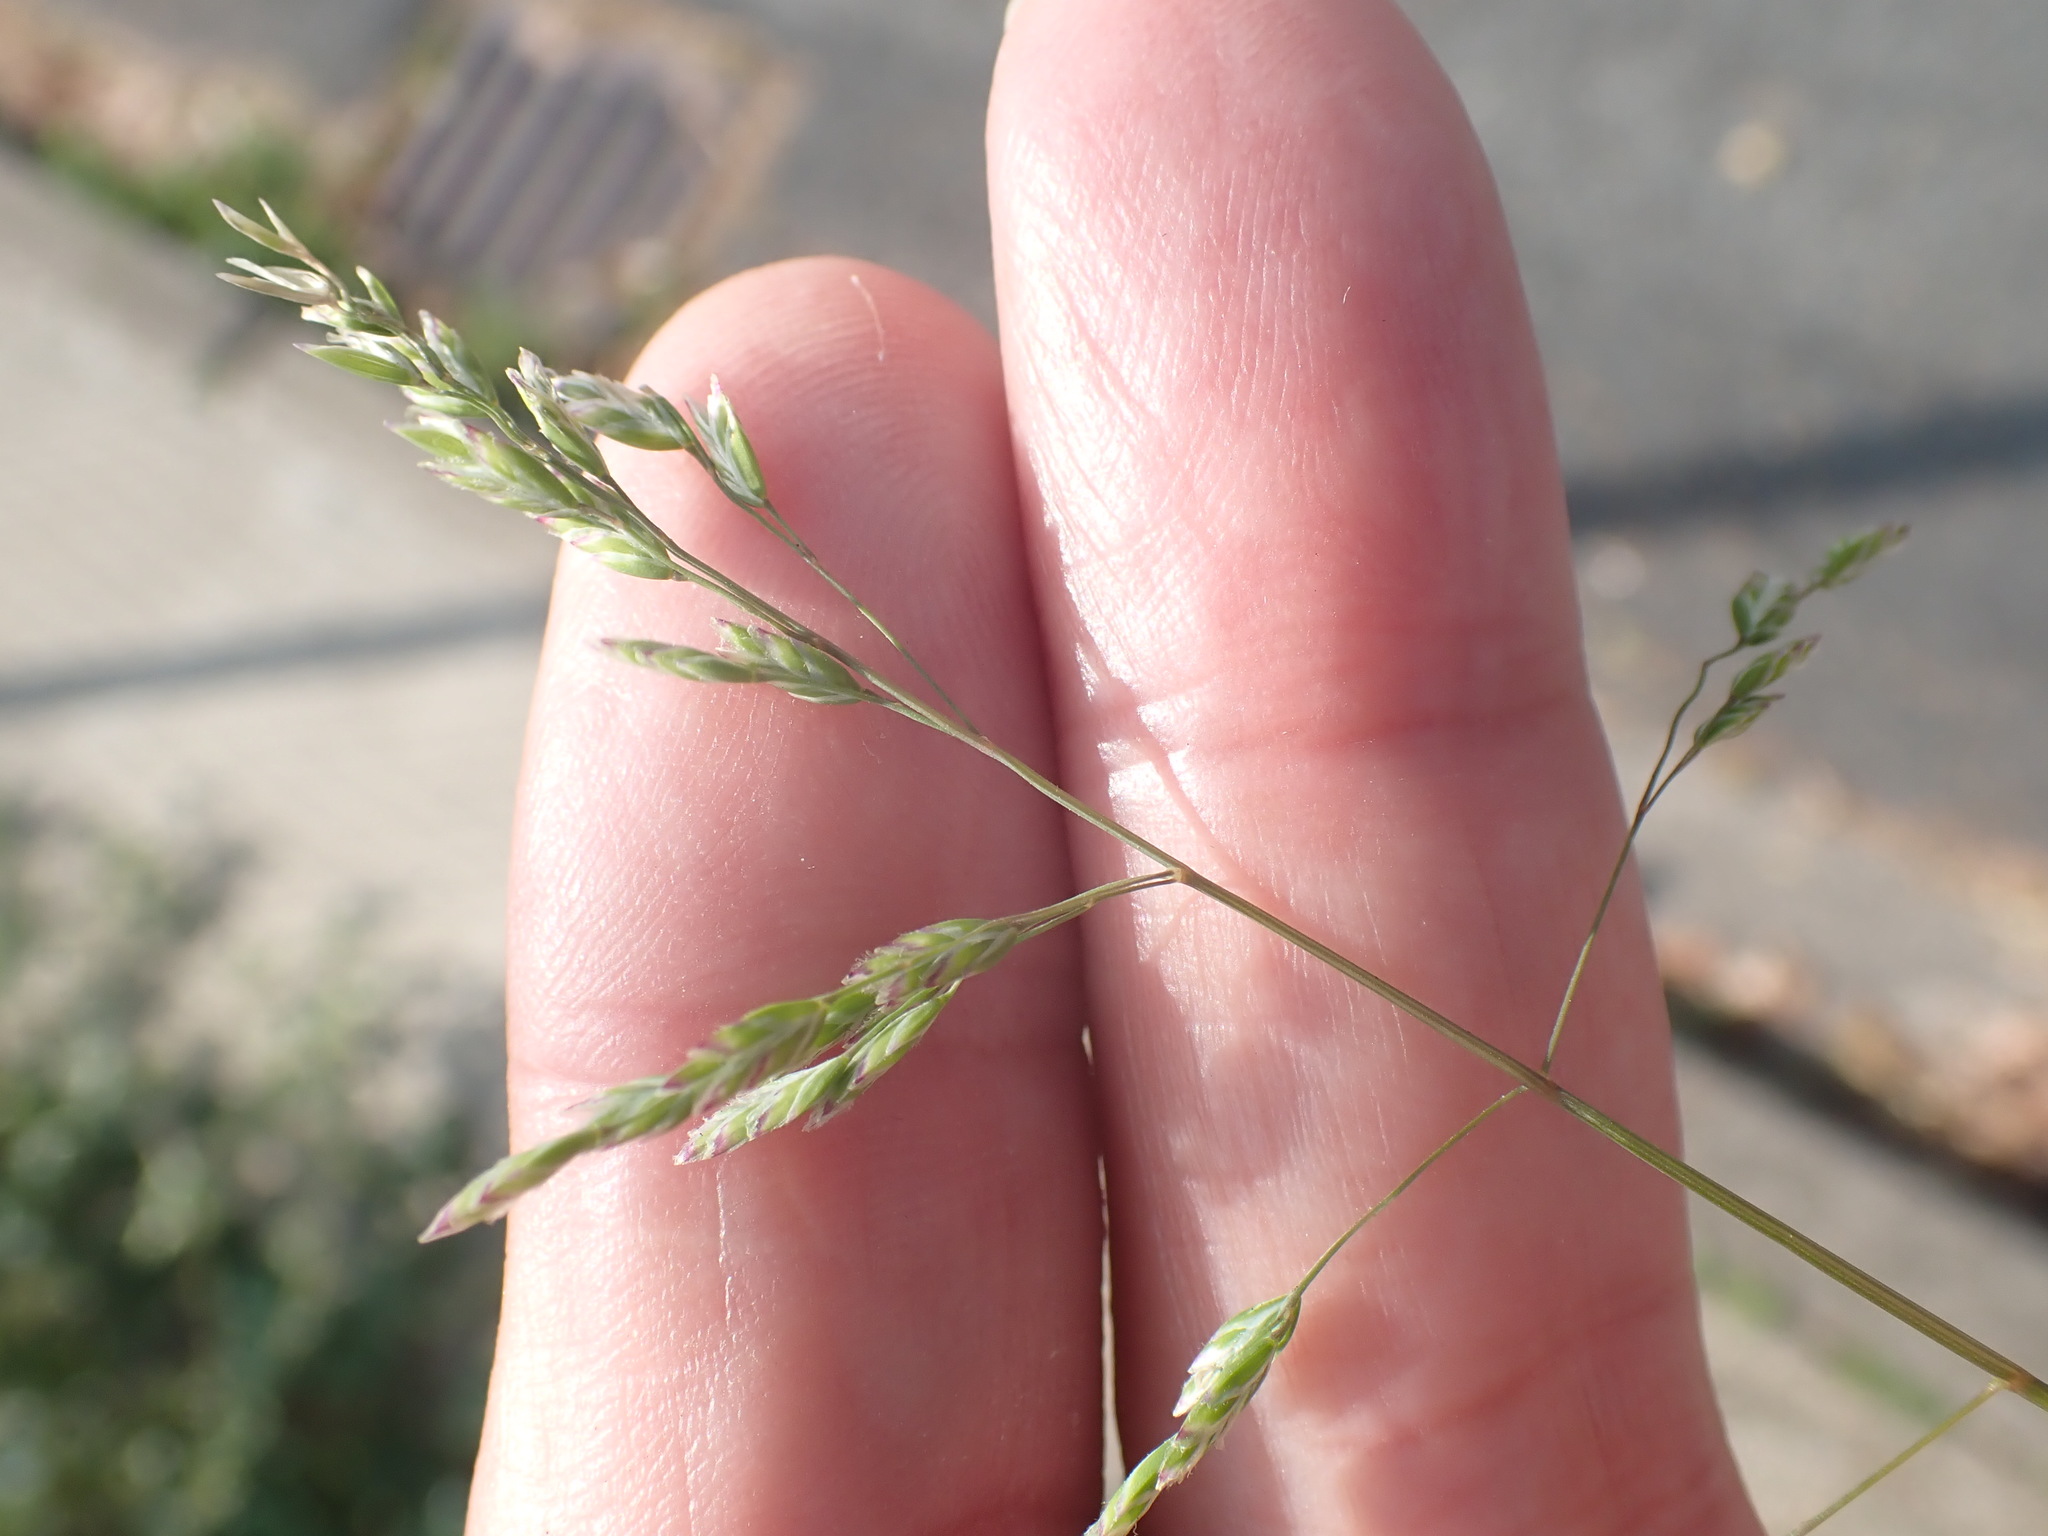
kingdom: Plantae
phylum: Tracheophyta
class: Liliopsida
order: Poales
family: Poaceae
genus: Poa
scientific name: Poa annua
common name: Annual bluegrass
